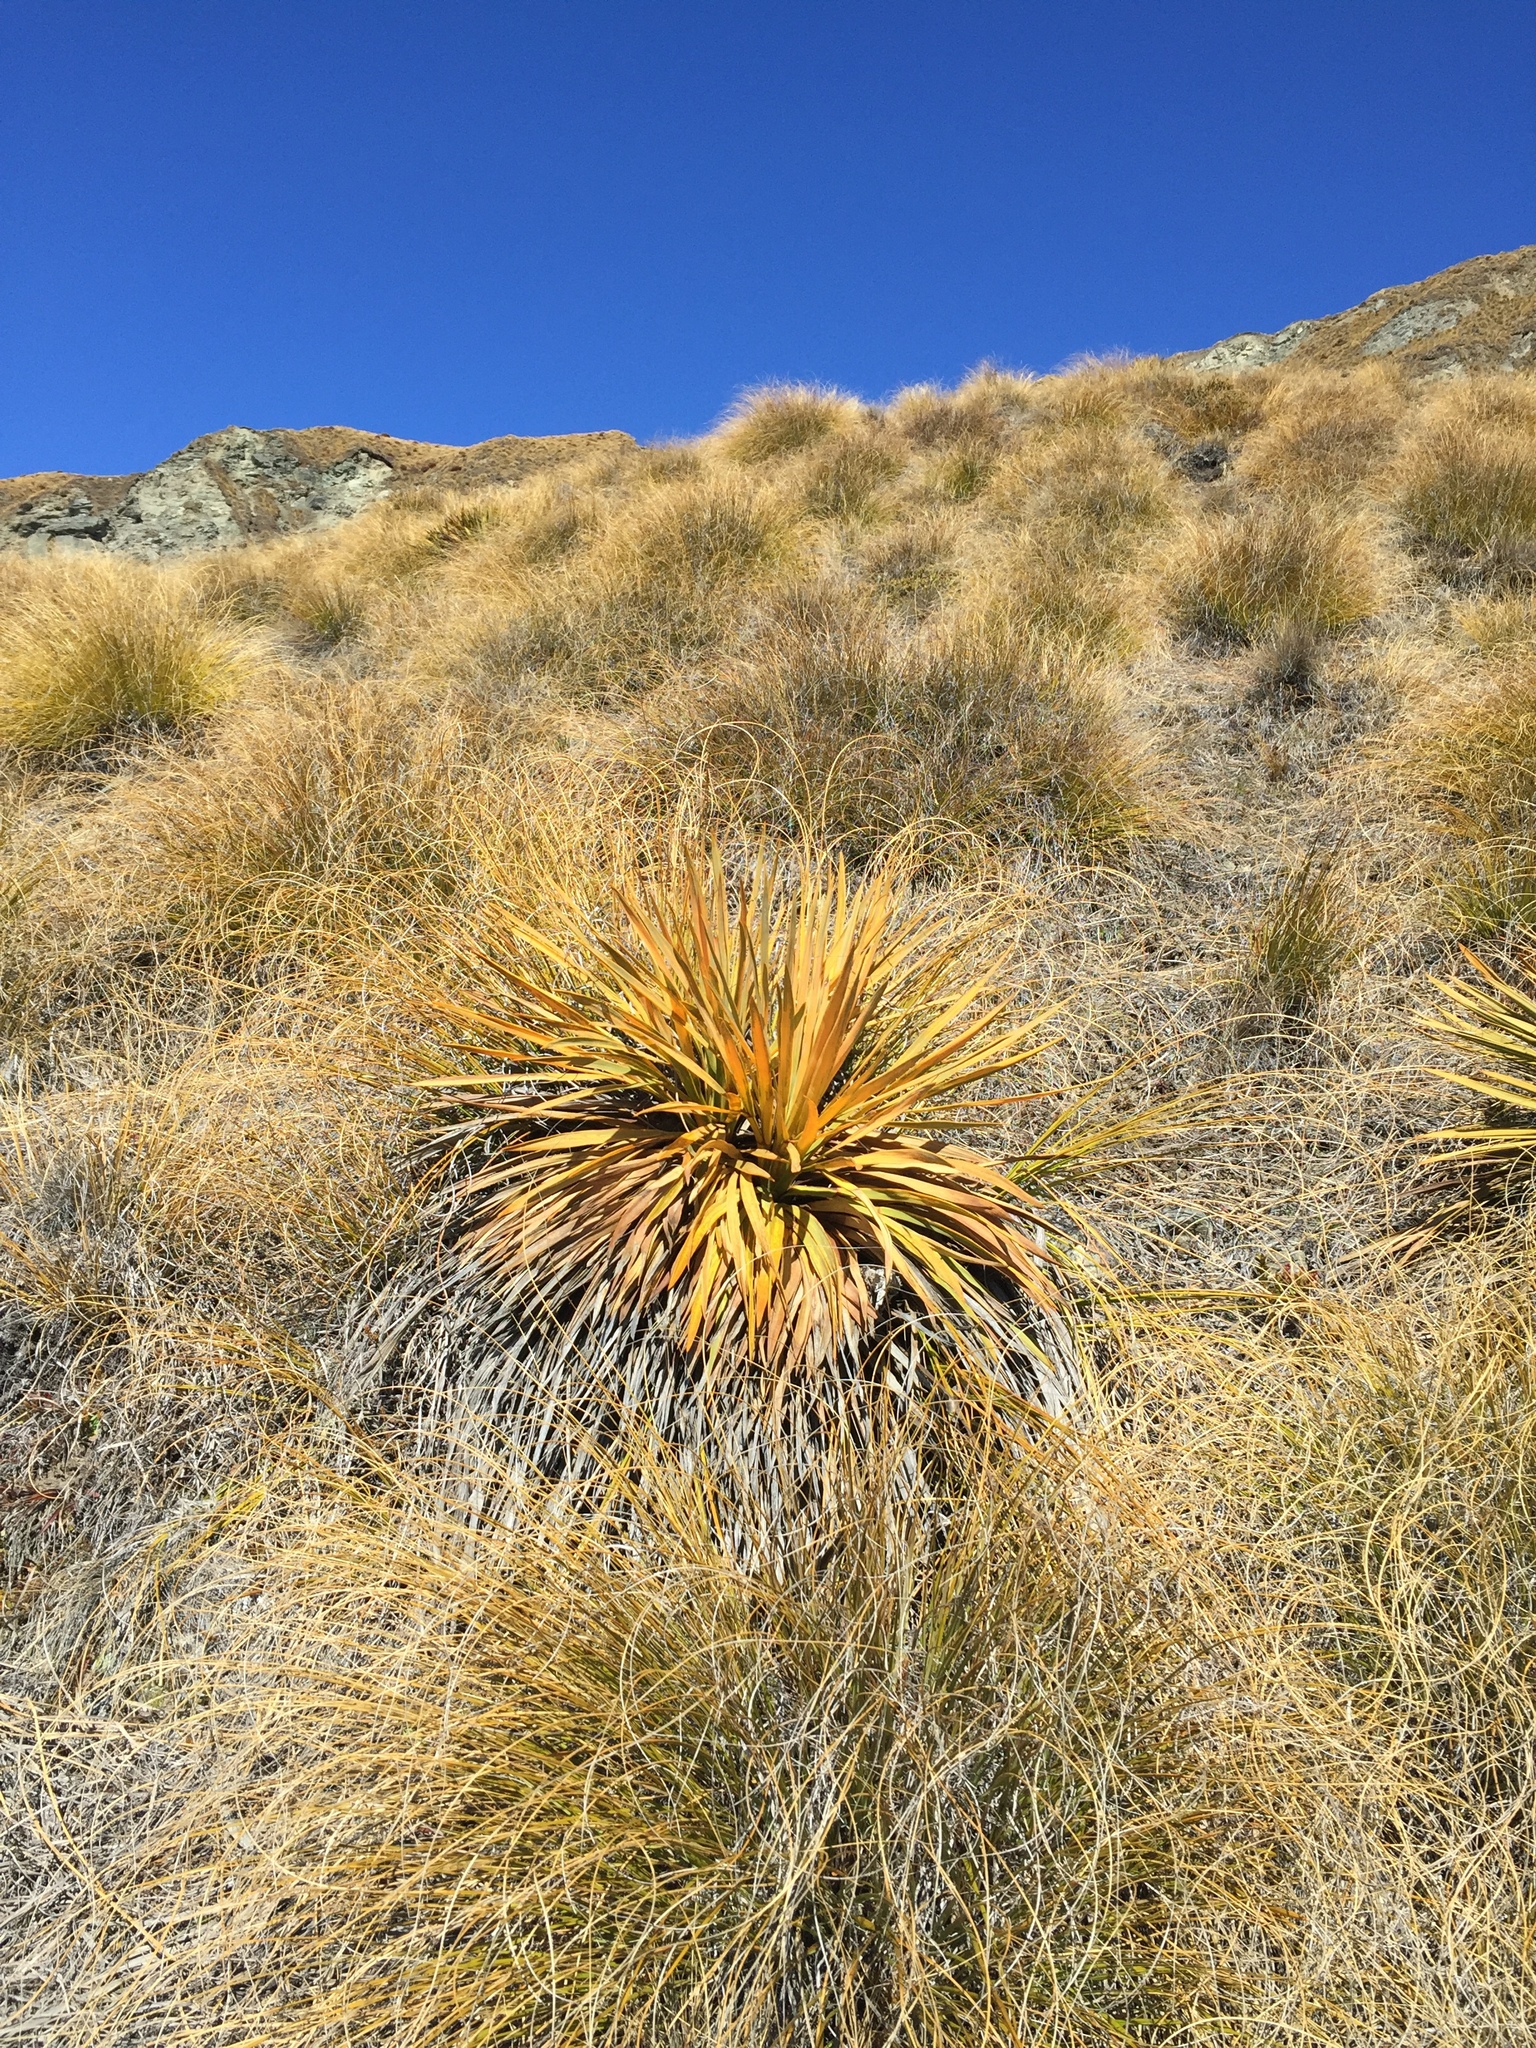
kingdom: Plantae
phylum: Tracheophyta
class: Magnoliopsida
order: Apiales
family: Apiaceae
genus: Aciphylla
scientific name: Aciphylla aurea
